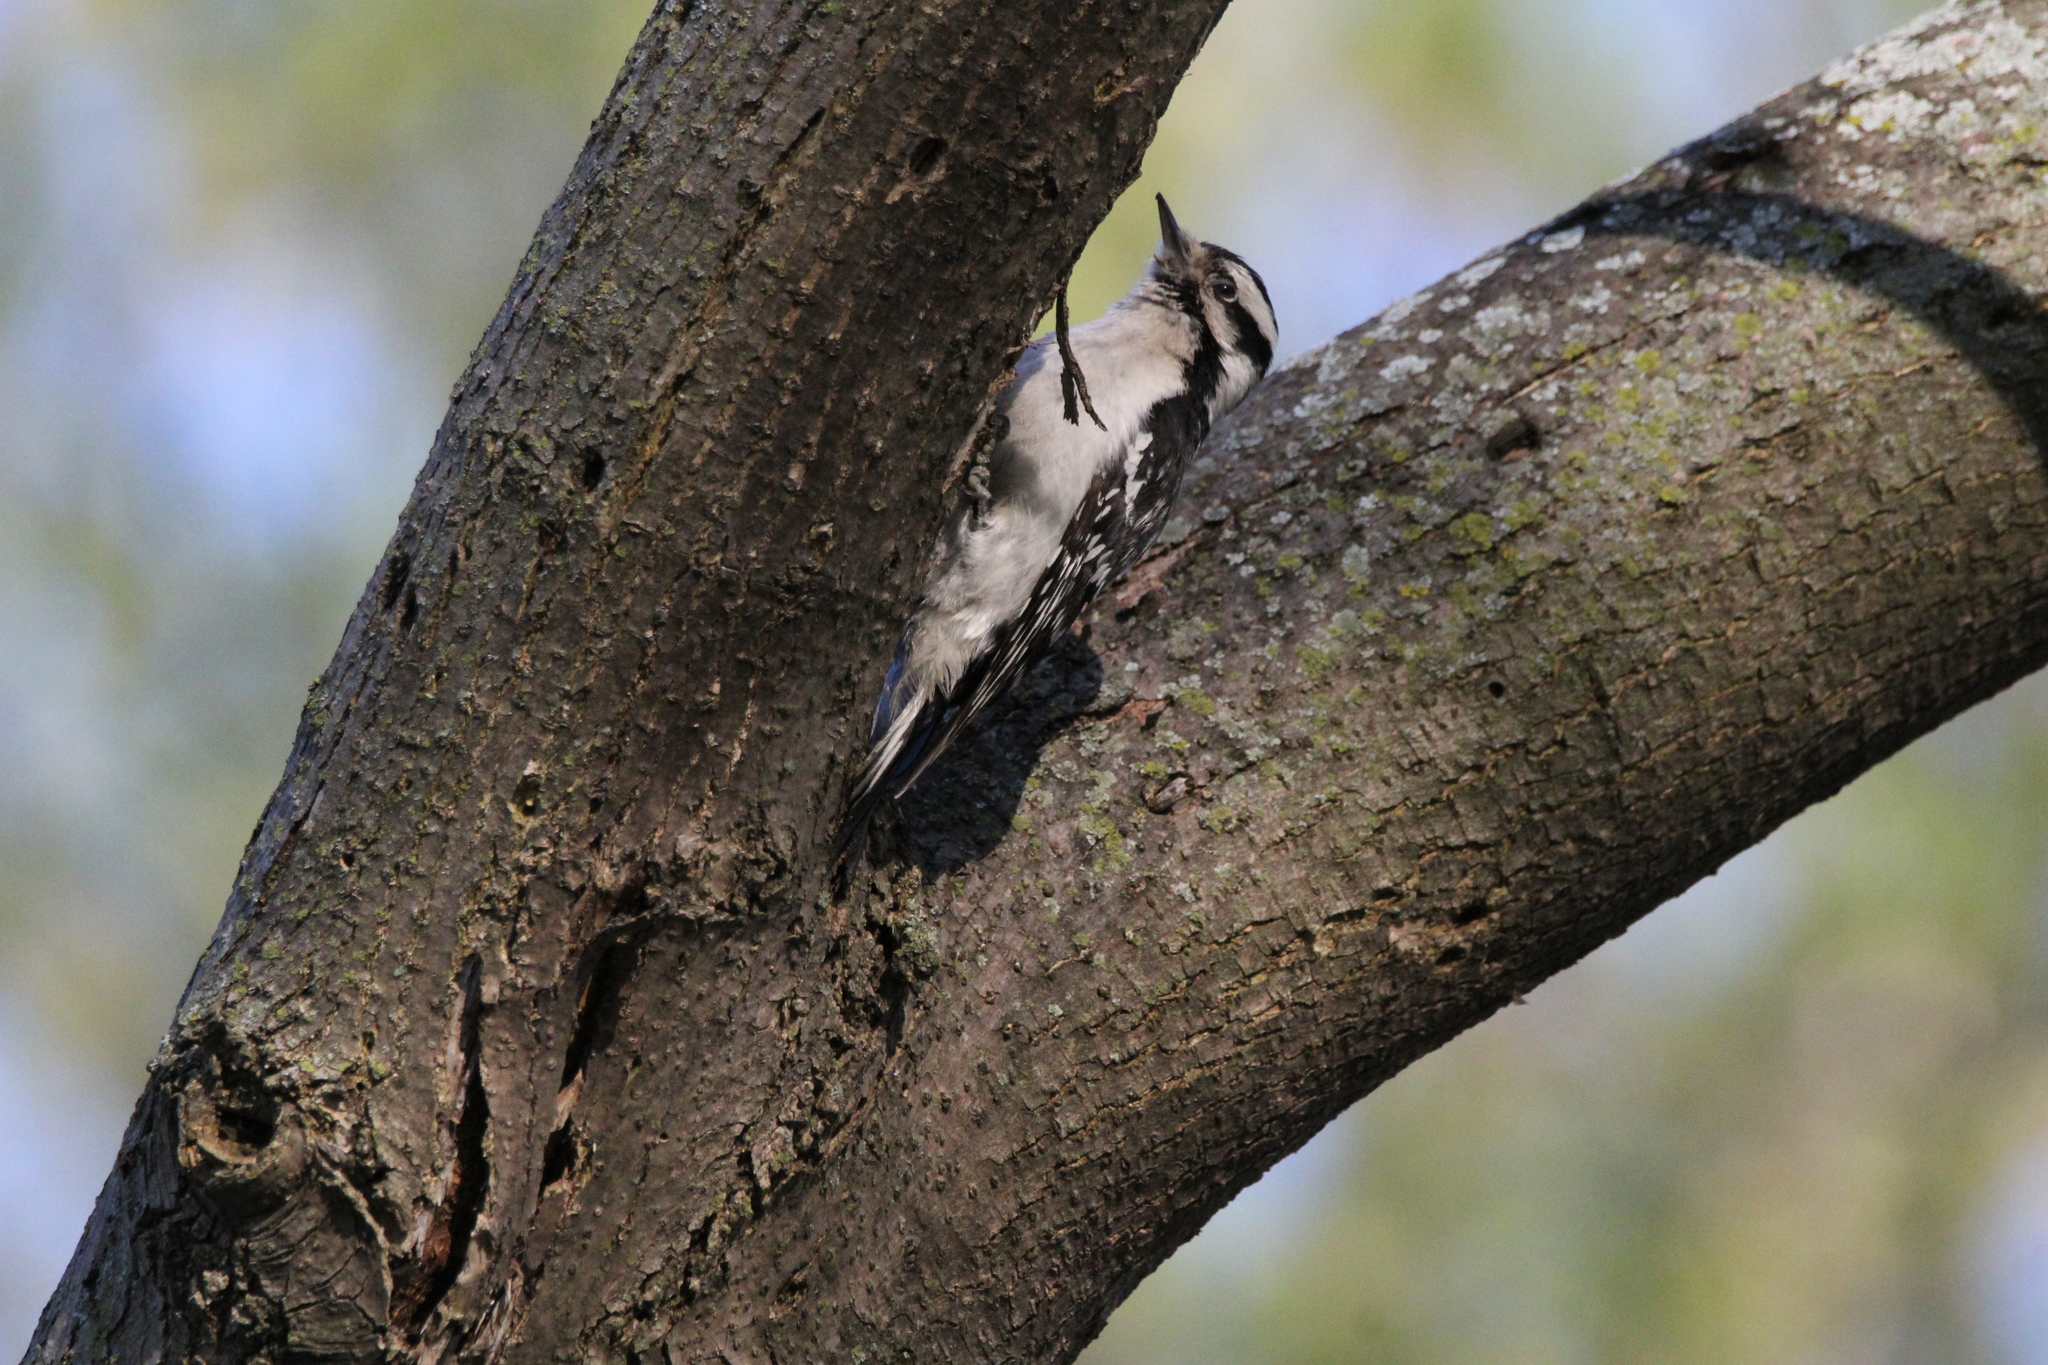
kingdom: Animalia
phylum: Chordata
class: Aves
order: Piciformes
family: Picidae
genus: Dryobates
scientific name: Dryobates pubescens
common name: Downy woodpecker
